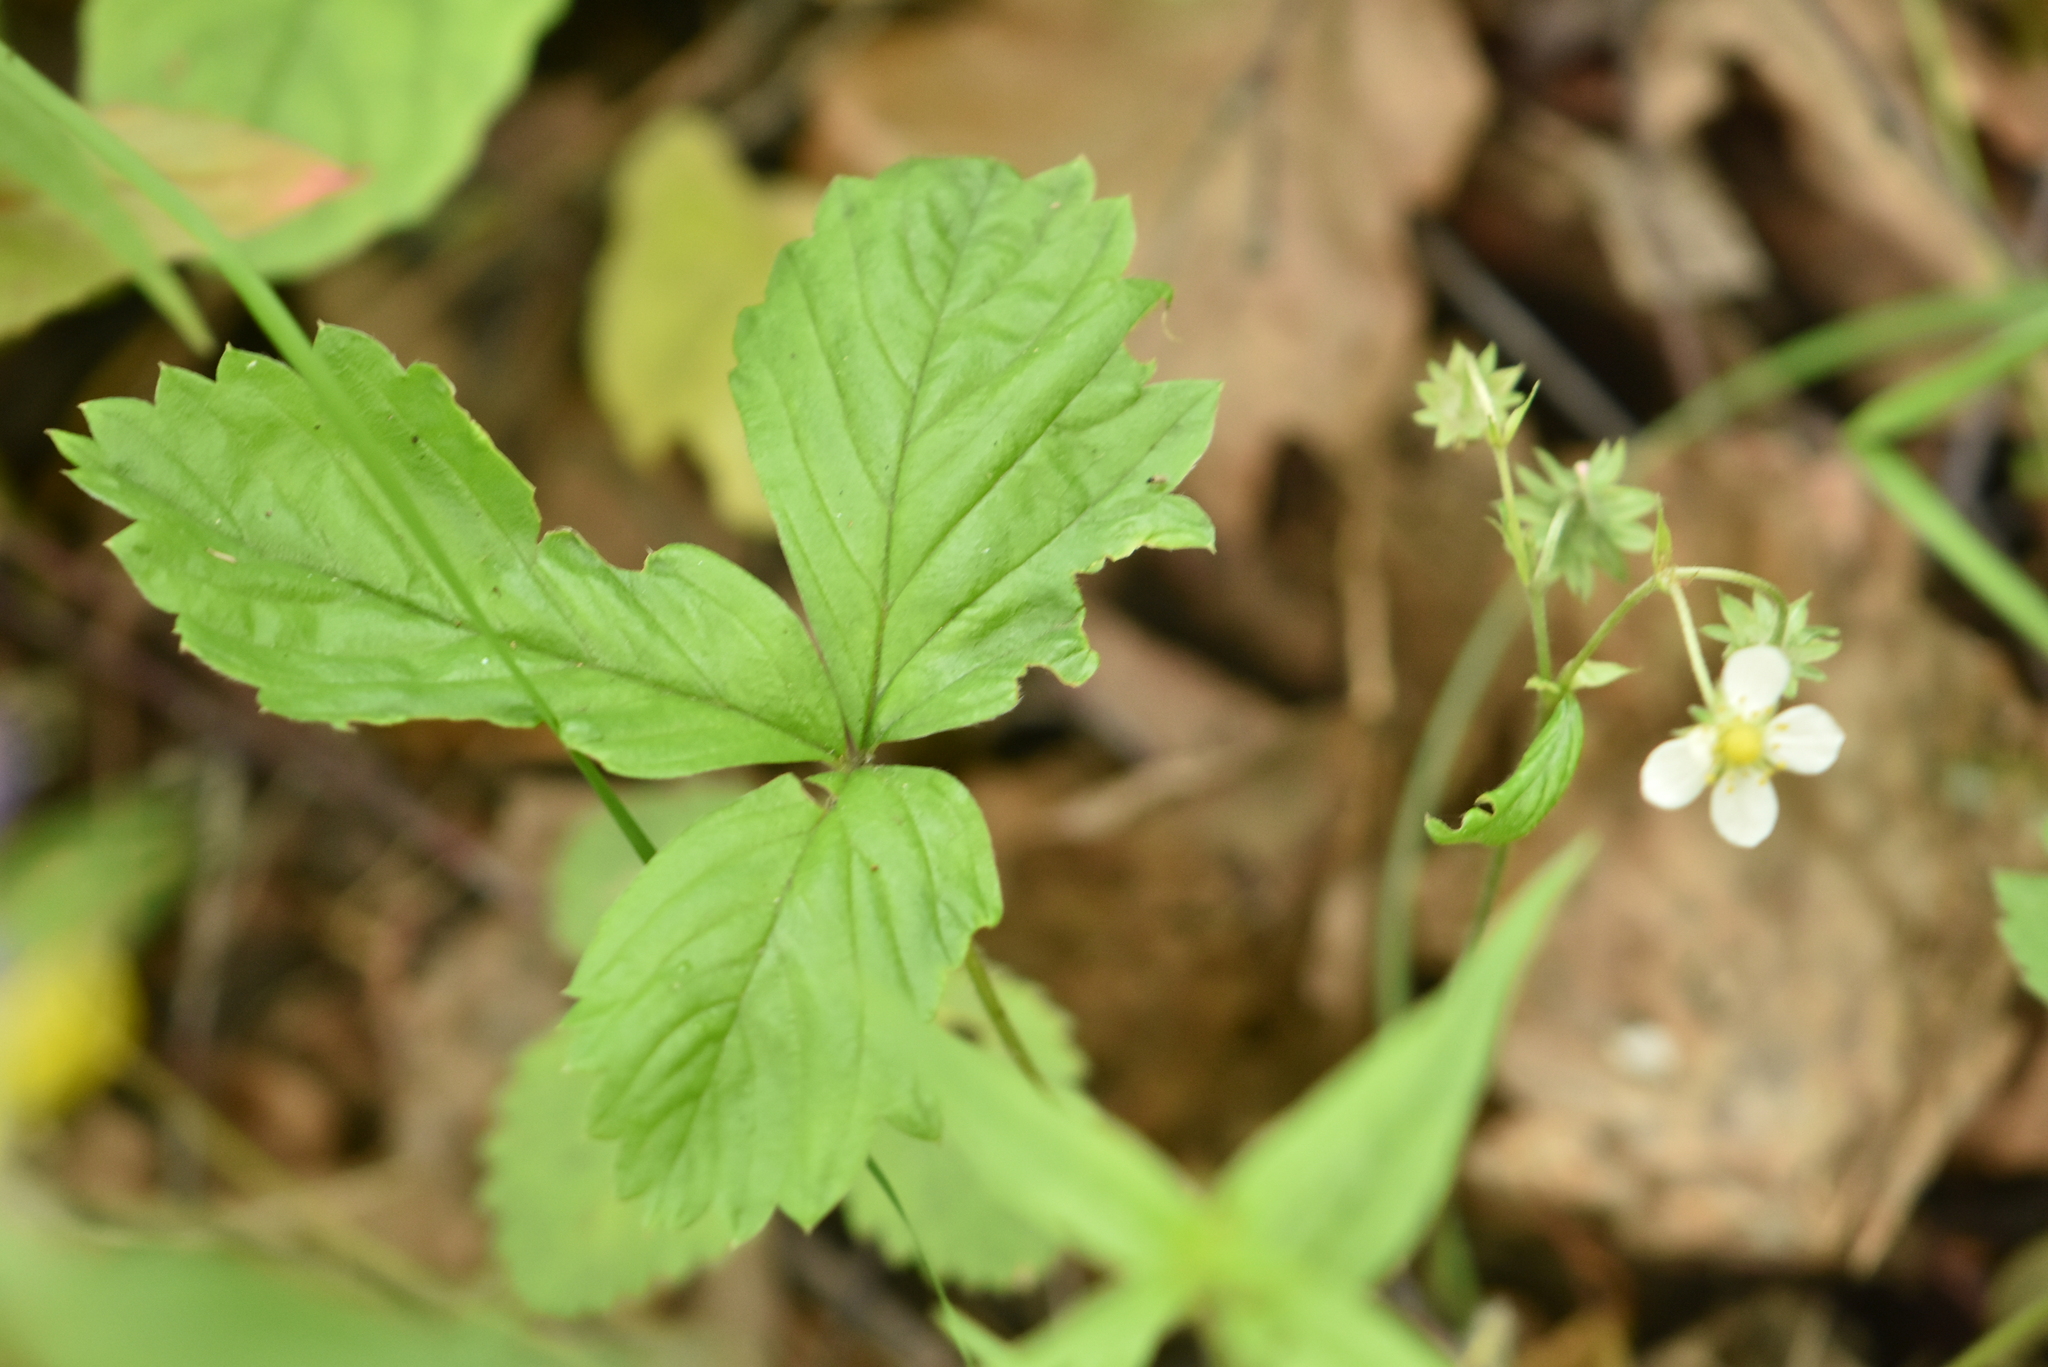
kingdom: Plantae
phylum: Tracheophyta
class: Magnoliopsida
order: Rosales
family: Rosaceae
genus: Fragaria
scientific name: Fragaria vesca
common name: Wild strawberry
